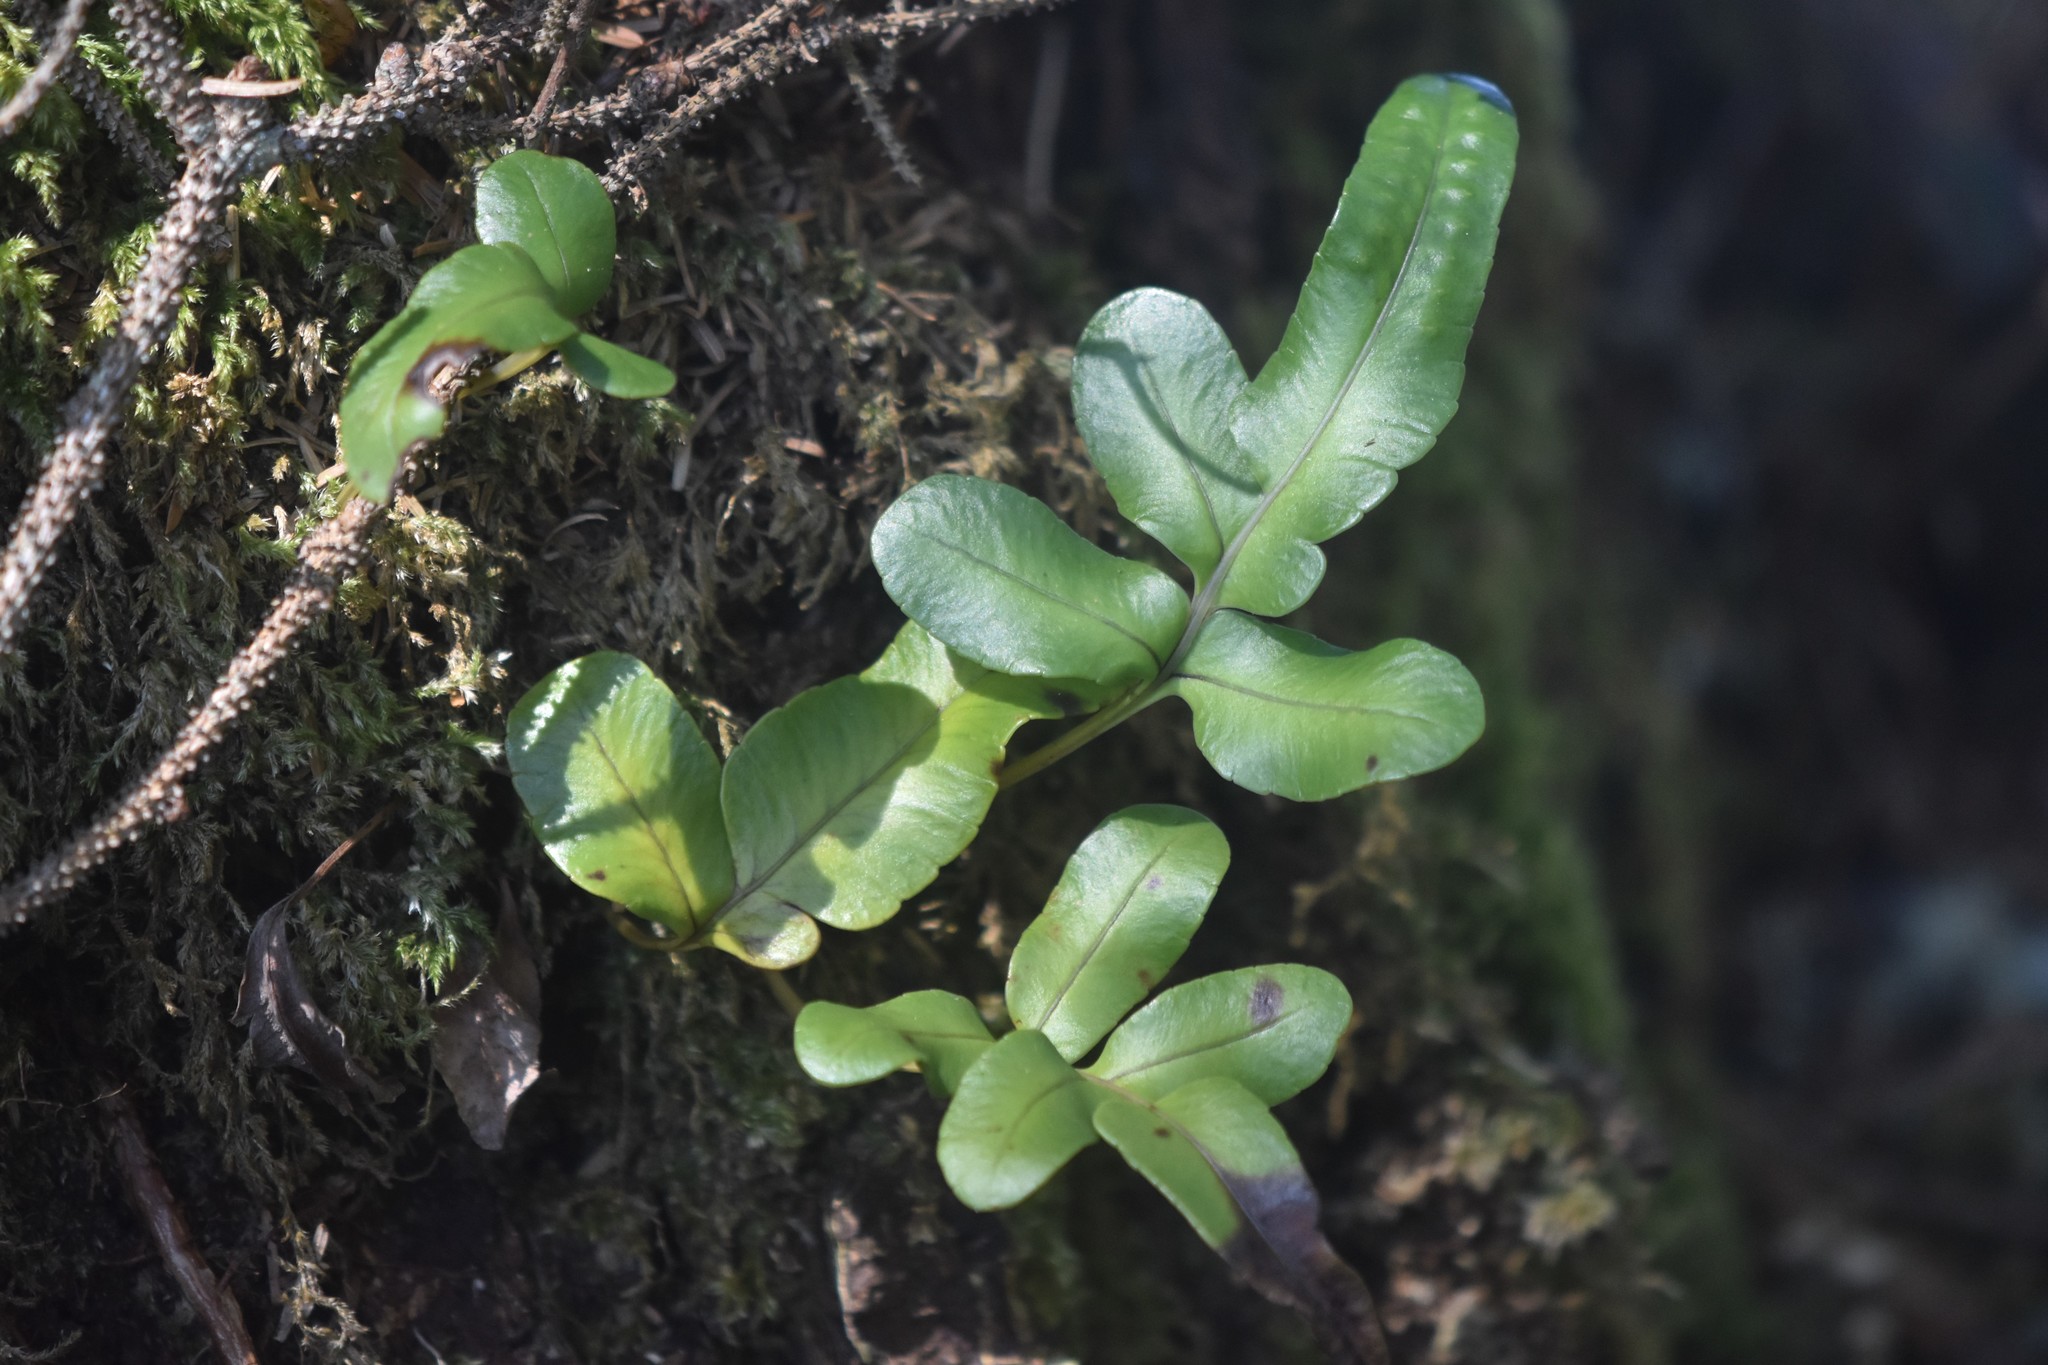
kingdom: Plantae
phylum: Tracheophyta
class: Polypodiopsida
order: Polypodiales
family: Polypodiaceae
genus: Polypodium
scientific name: Polypodium scouleri
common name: Scouler's polypody
